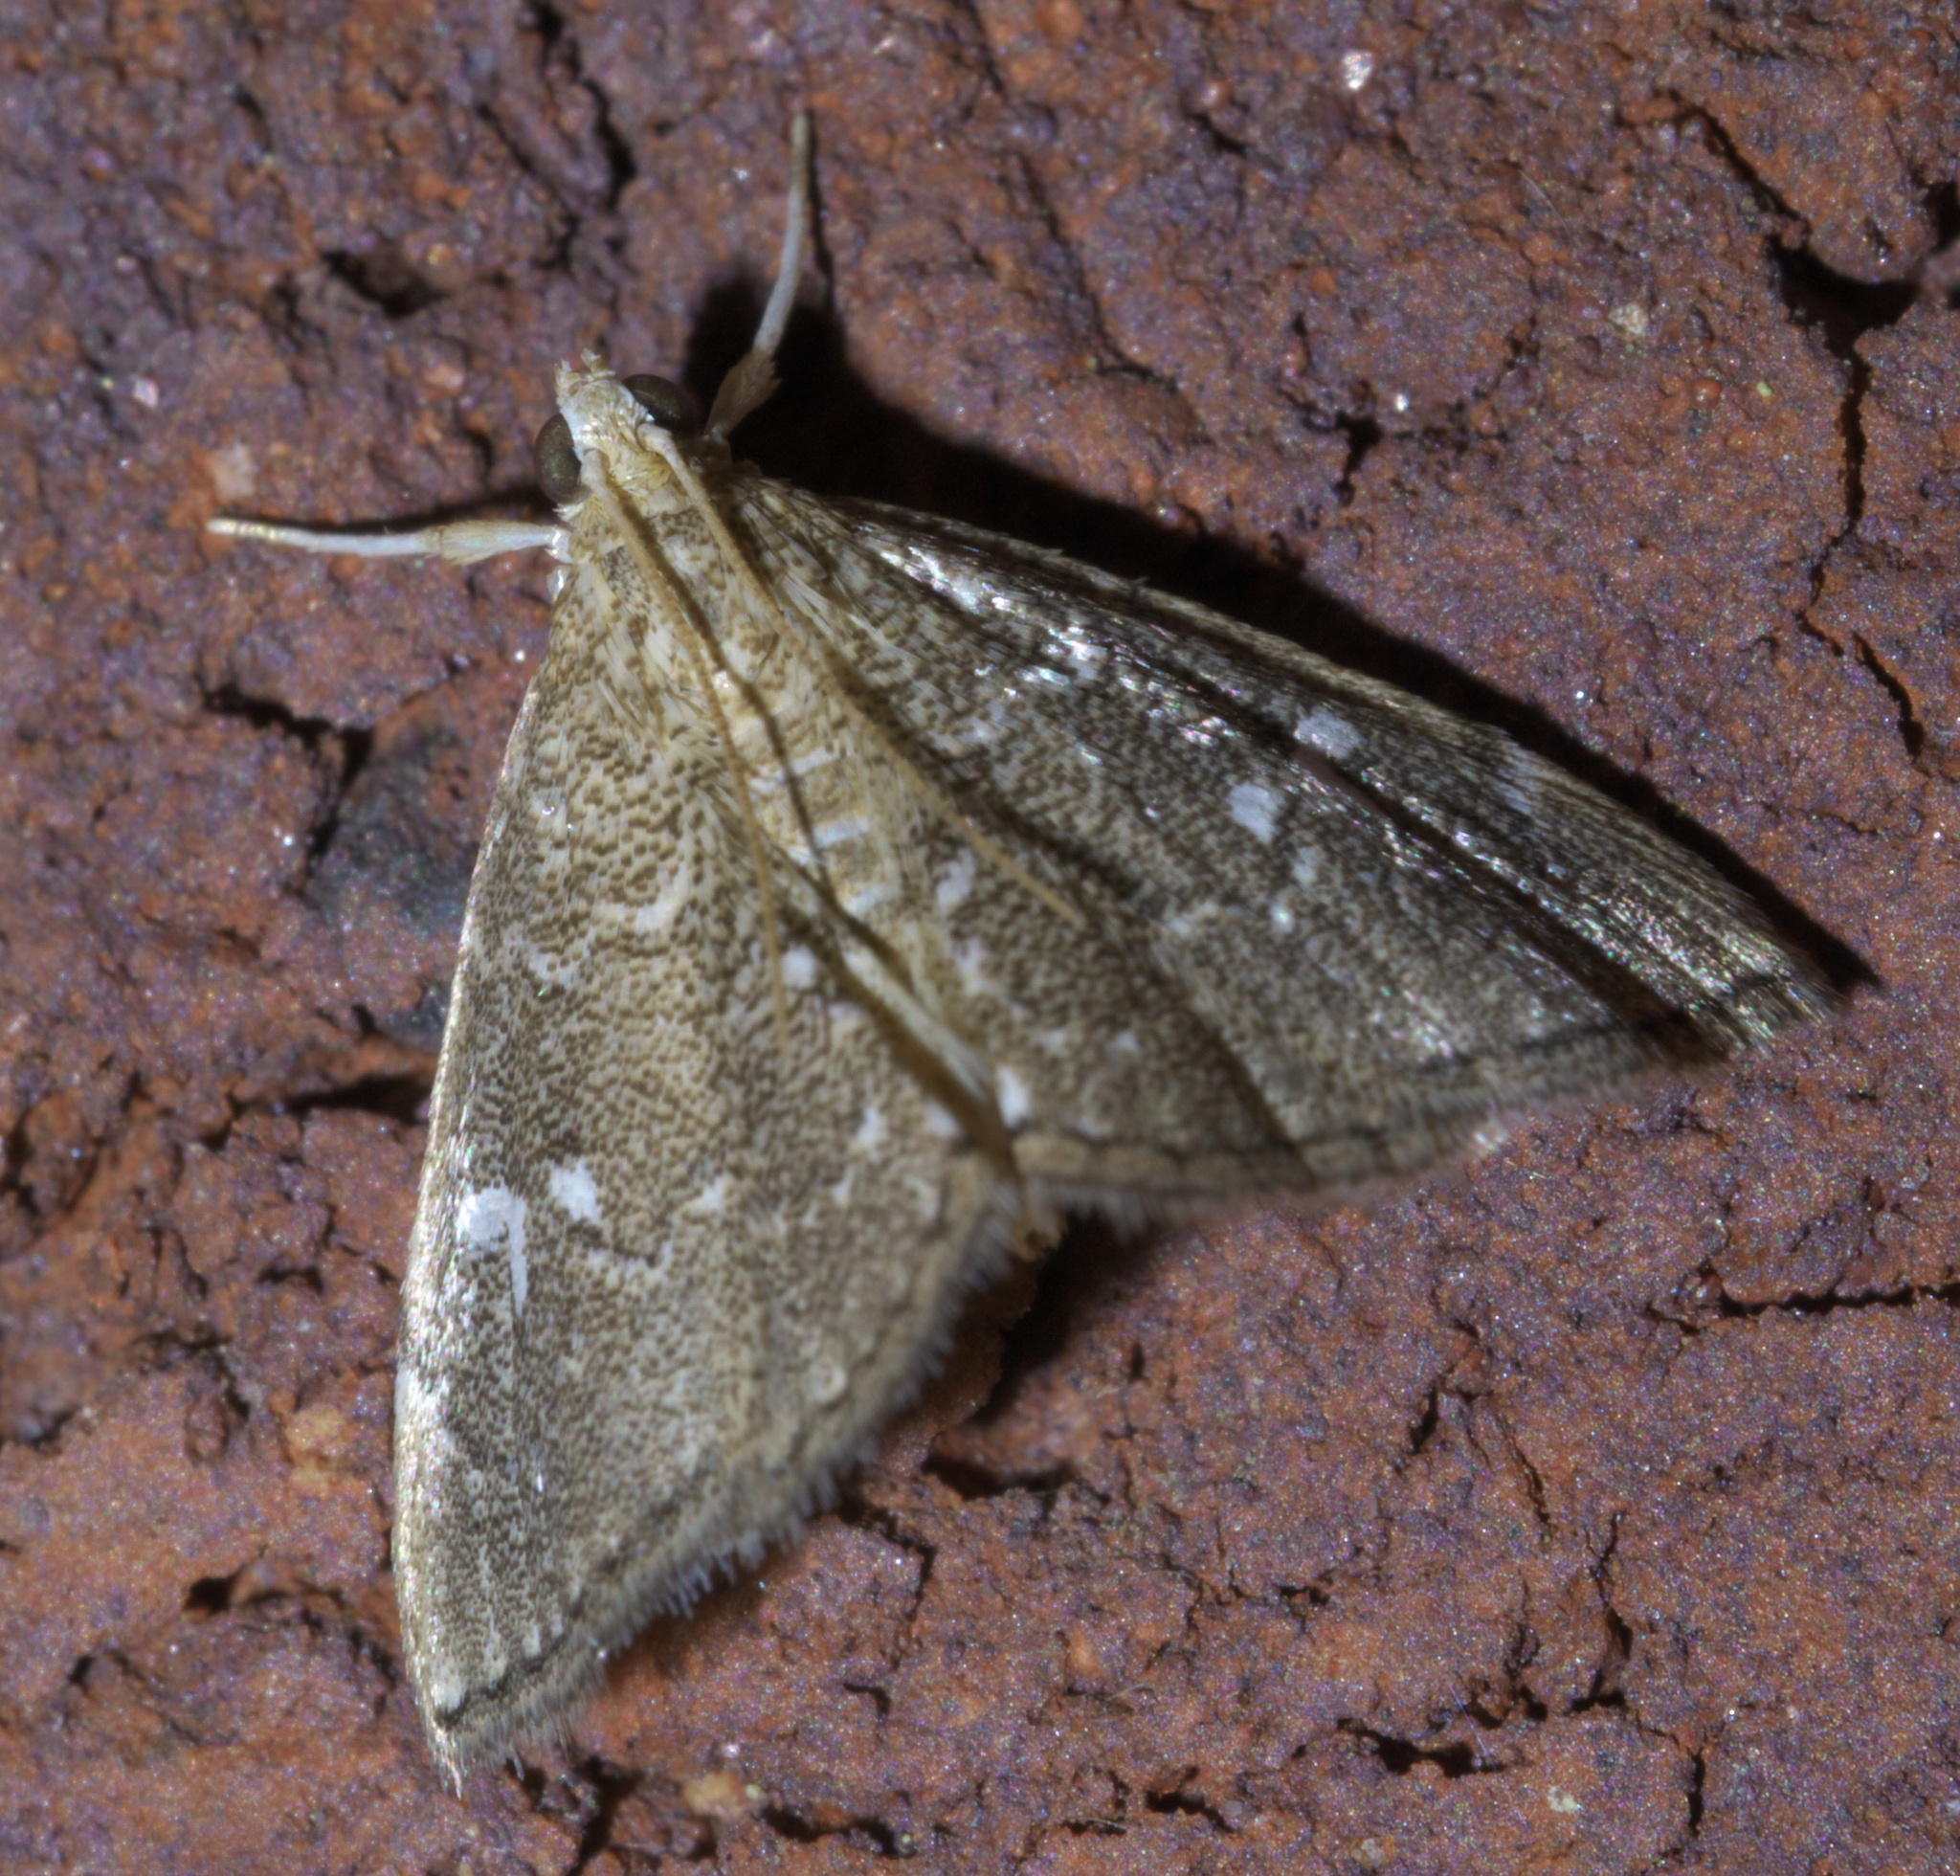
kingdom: Animalia
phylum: Arthropoda
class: Insecta
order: Lepidoptera
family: Crambidae
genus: Nephrogramma
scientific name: Nephrogramma reniculalis
